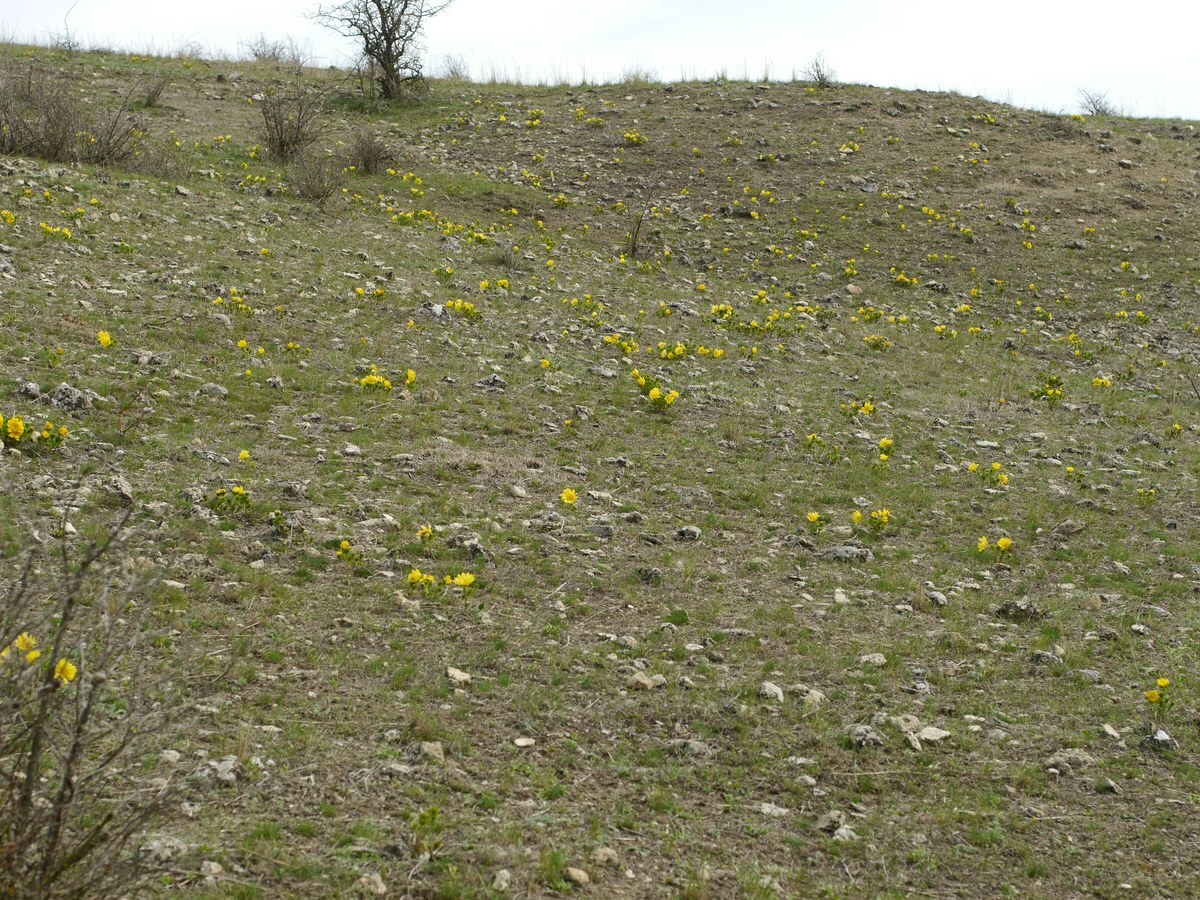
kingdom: Plantae
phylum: Tracheophyta
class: Magnoliopsida
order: Ranunculales
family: Ranunculaceae
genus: Adonis
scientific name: Adonis vernalis
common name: Yellow pheasants-eye
